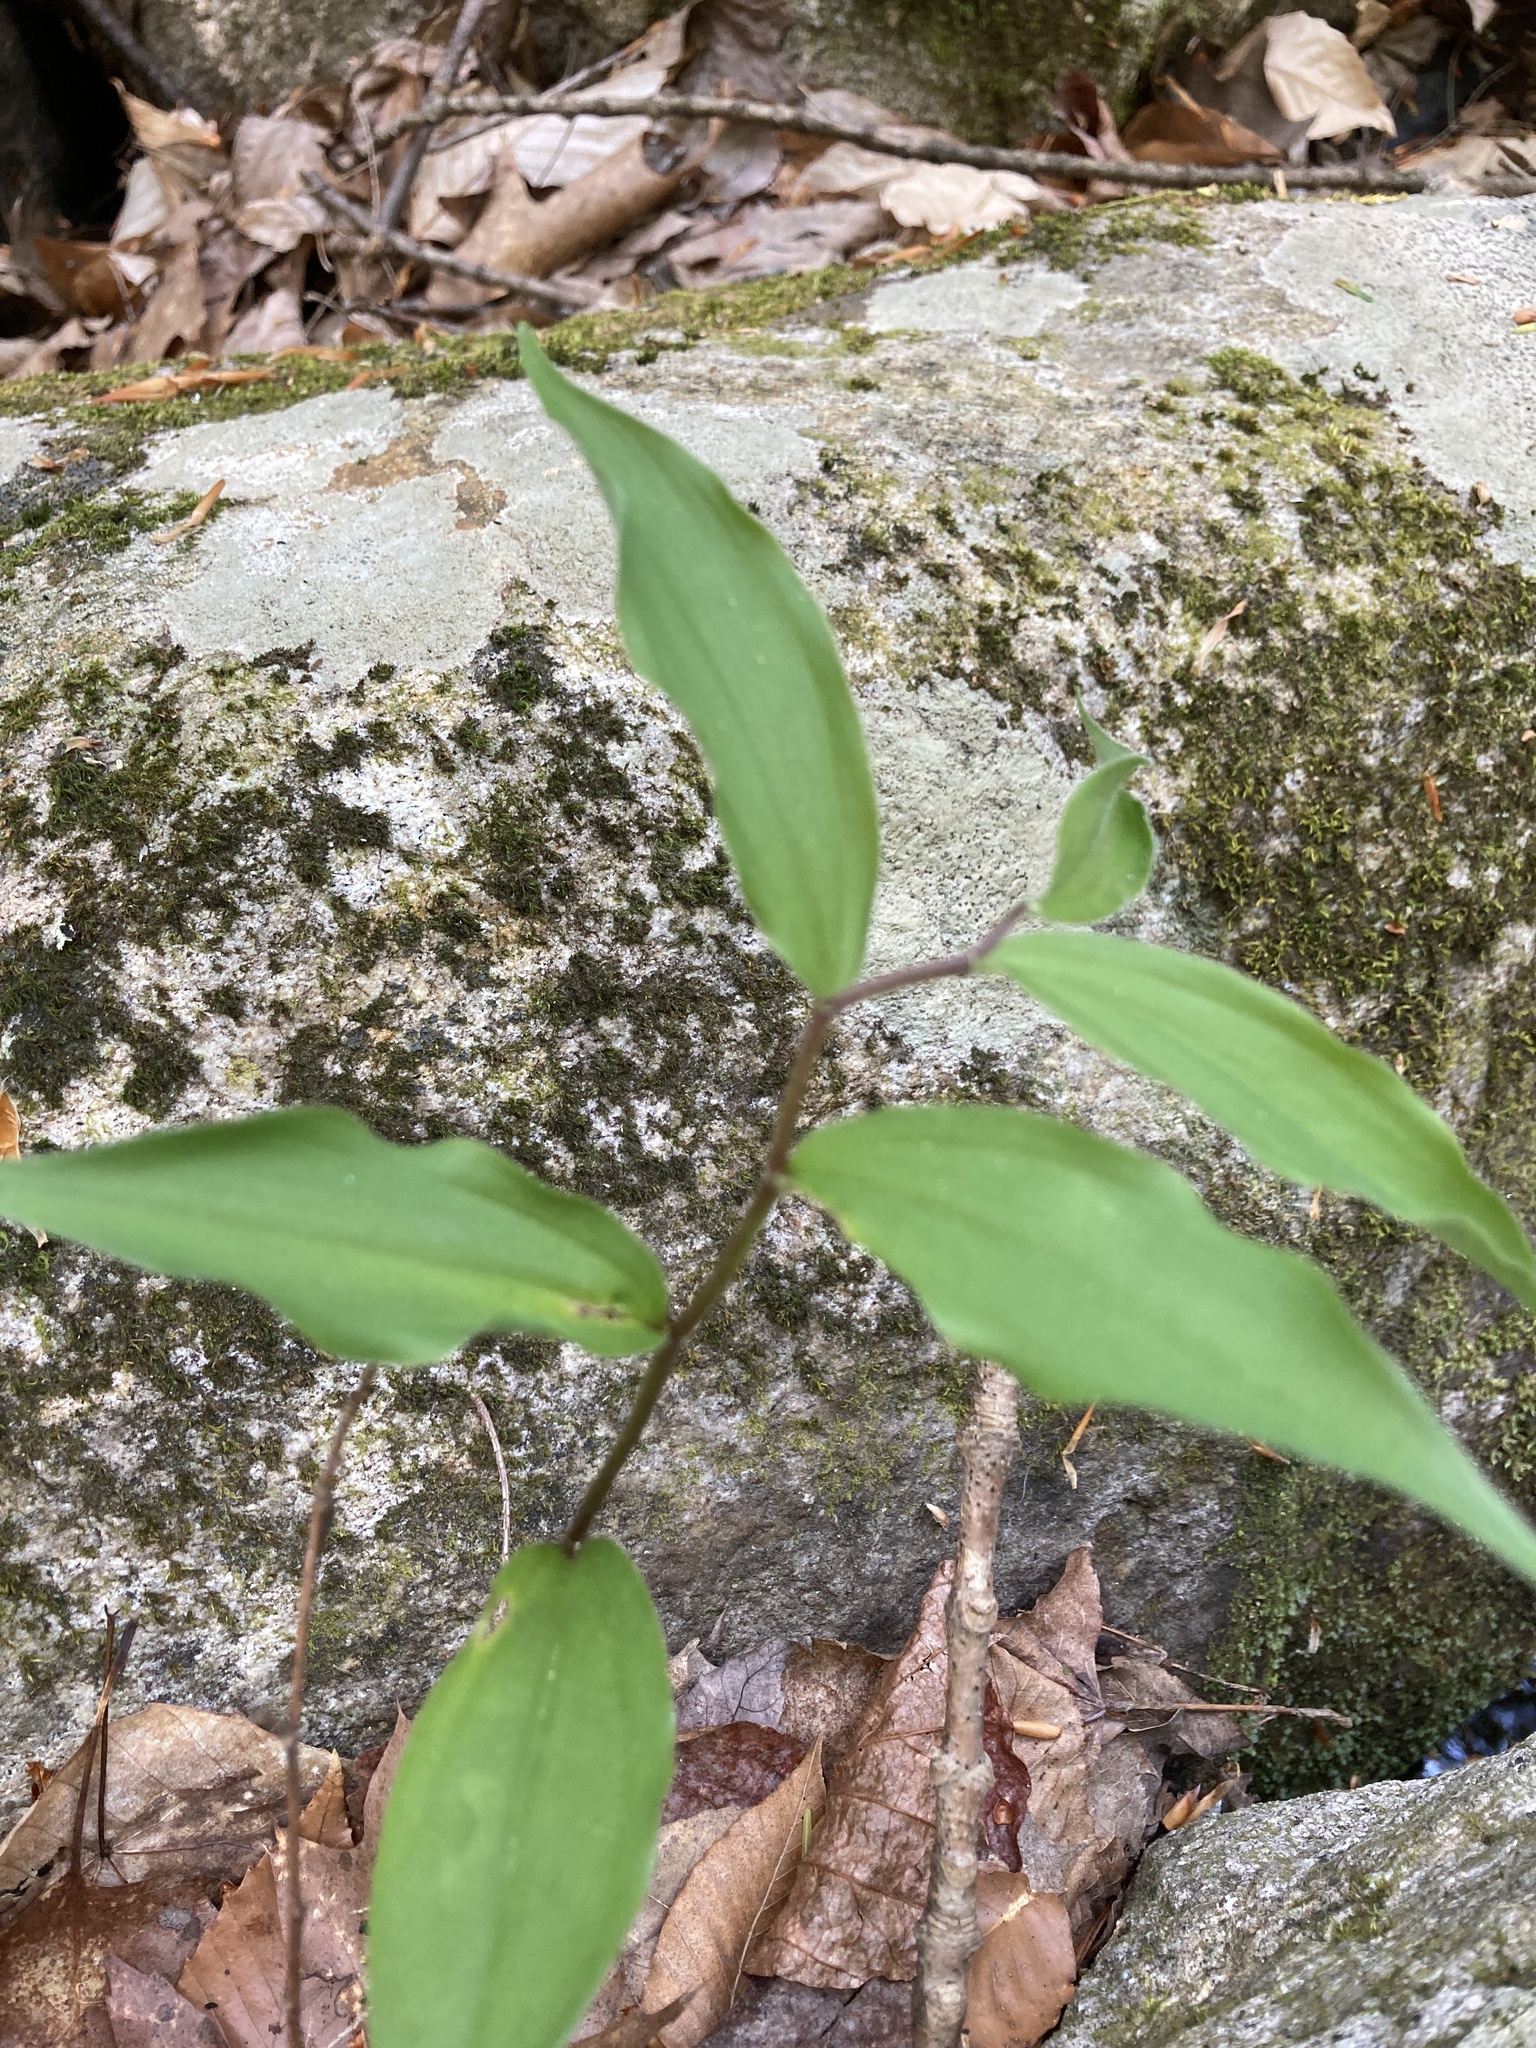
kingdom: Plantae
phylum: Tracheophyta
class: Liliopsida
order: Asparagales
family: Asparagaceae
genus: Maianthemum
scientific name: Maianthemum racemosum
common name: False spikenard
